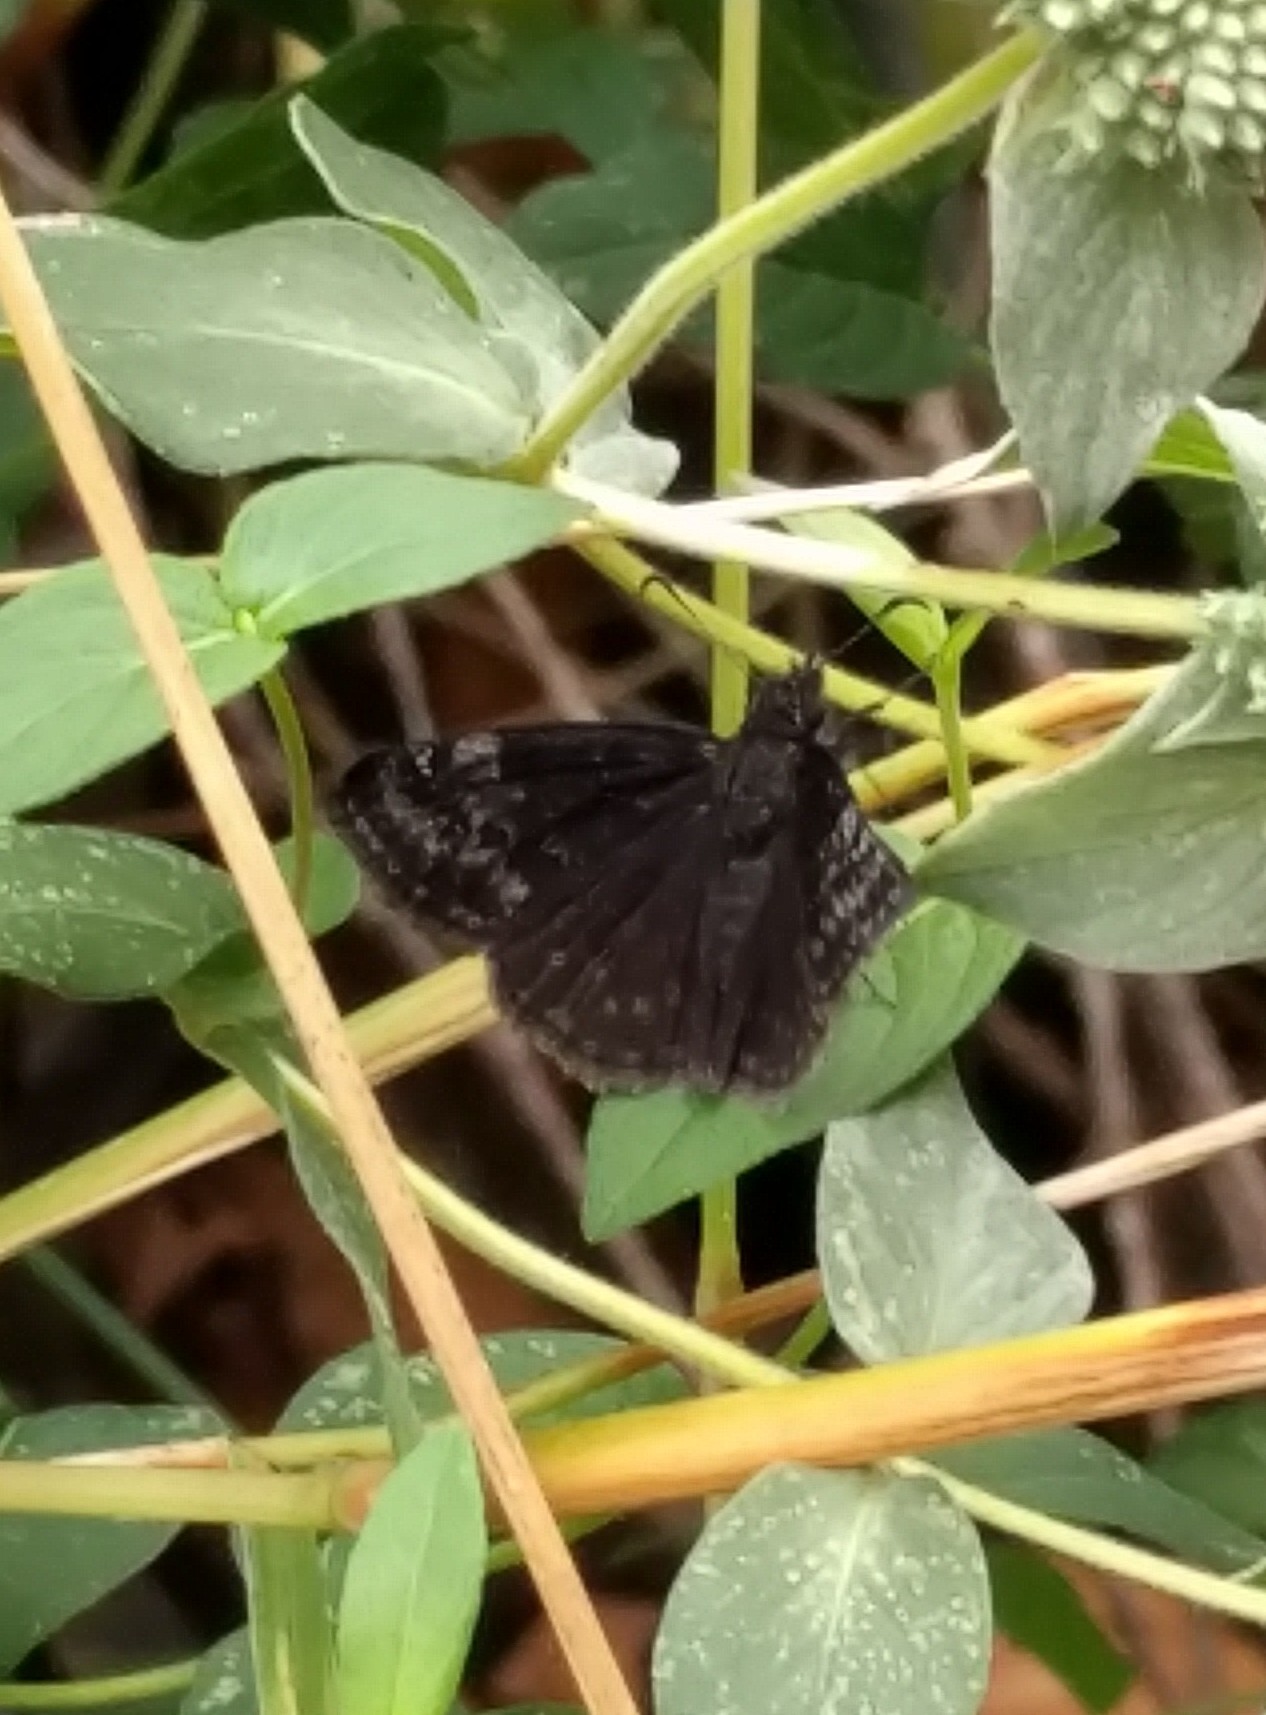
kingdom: Animalia
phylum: Arthropoda
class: Insecta
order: Lepidoptera
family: Hesperiidae
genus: Erynnis
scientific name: Erynnis baptisiae
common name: Wild indigo duskywing
